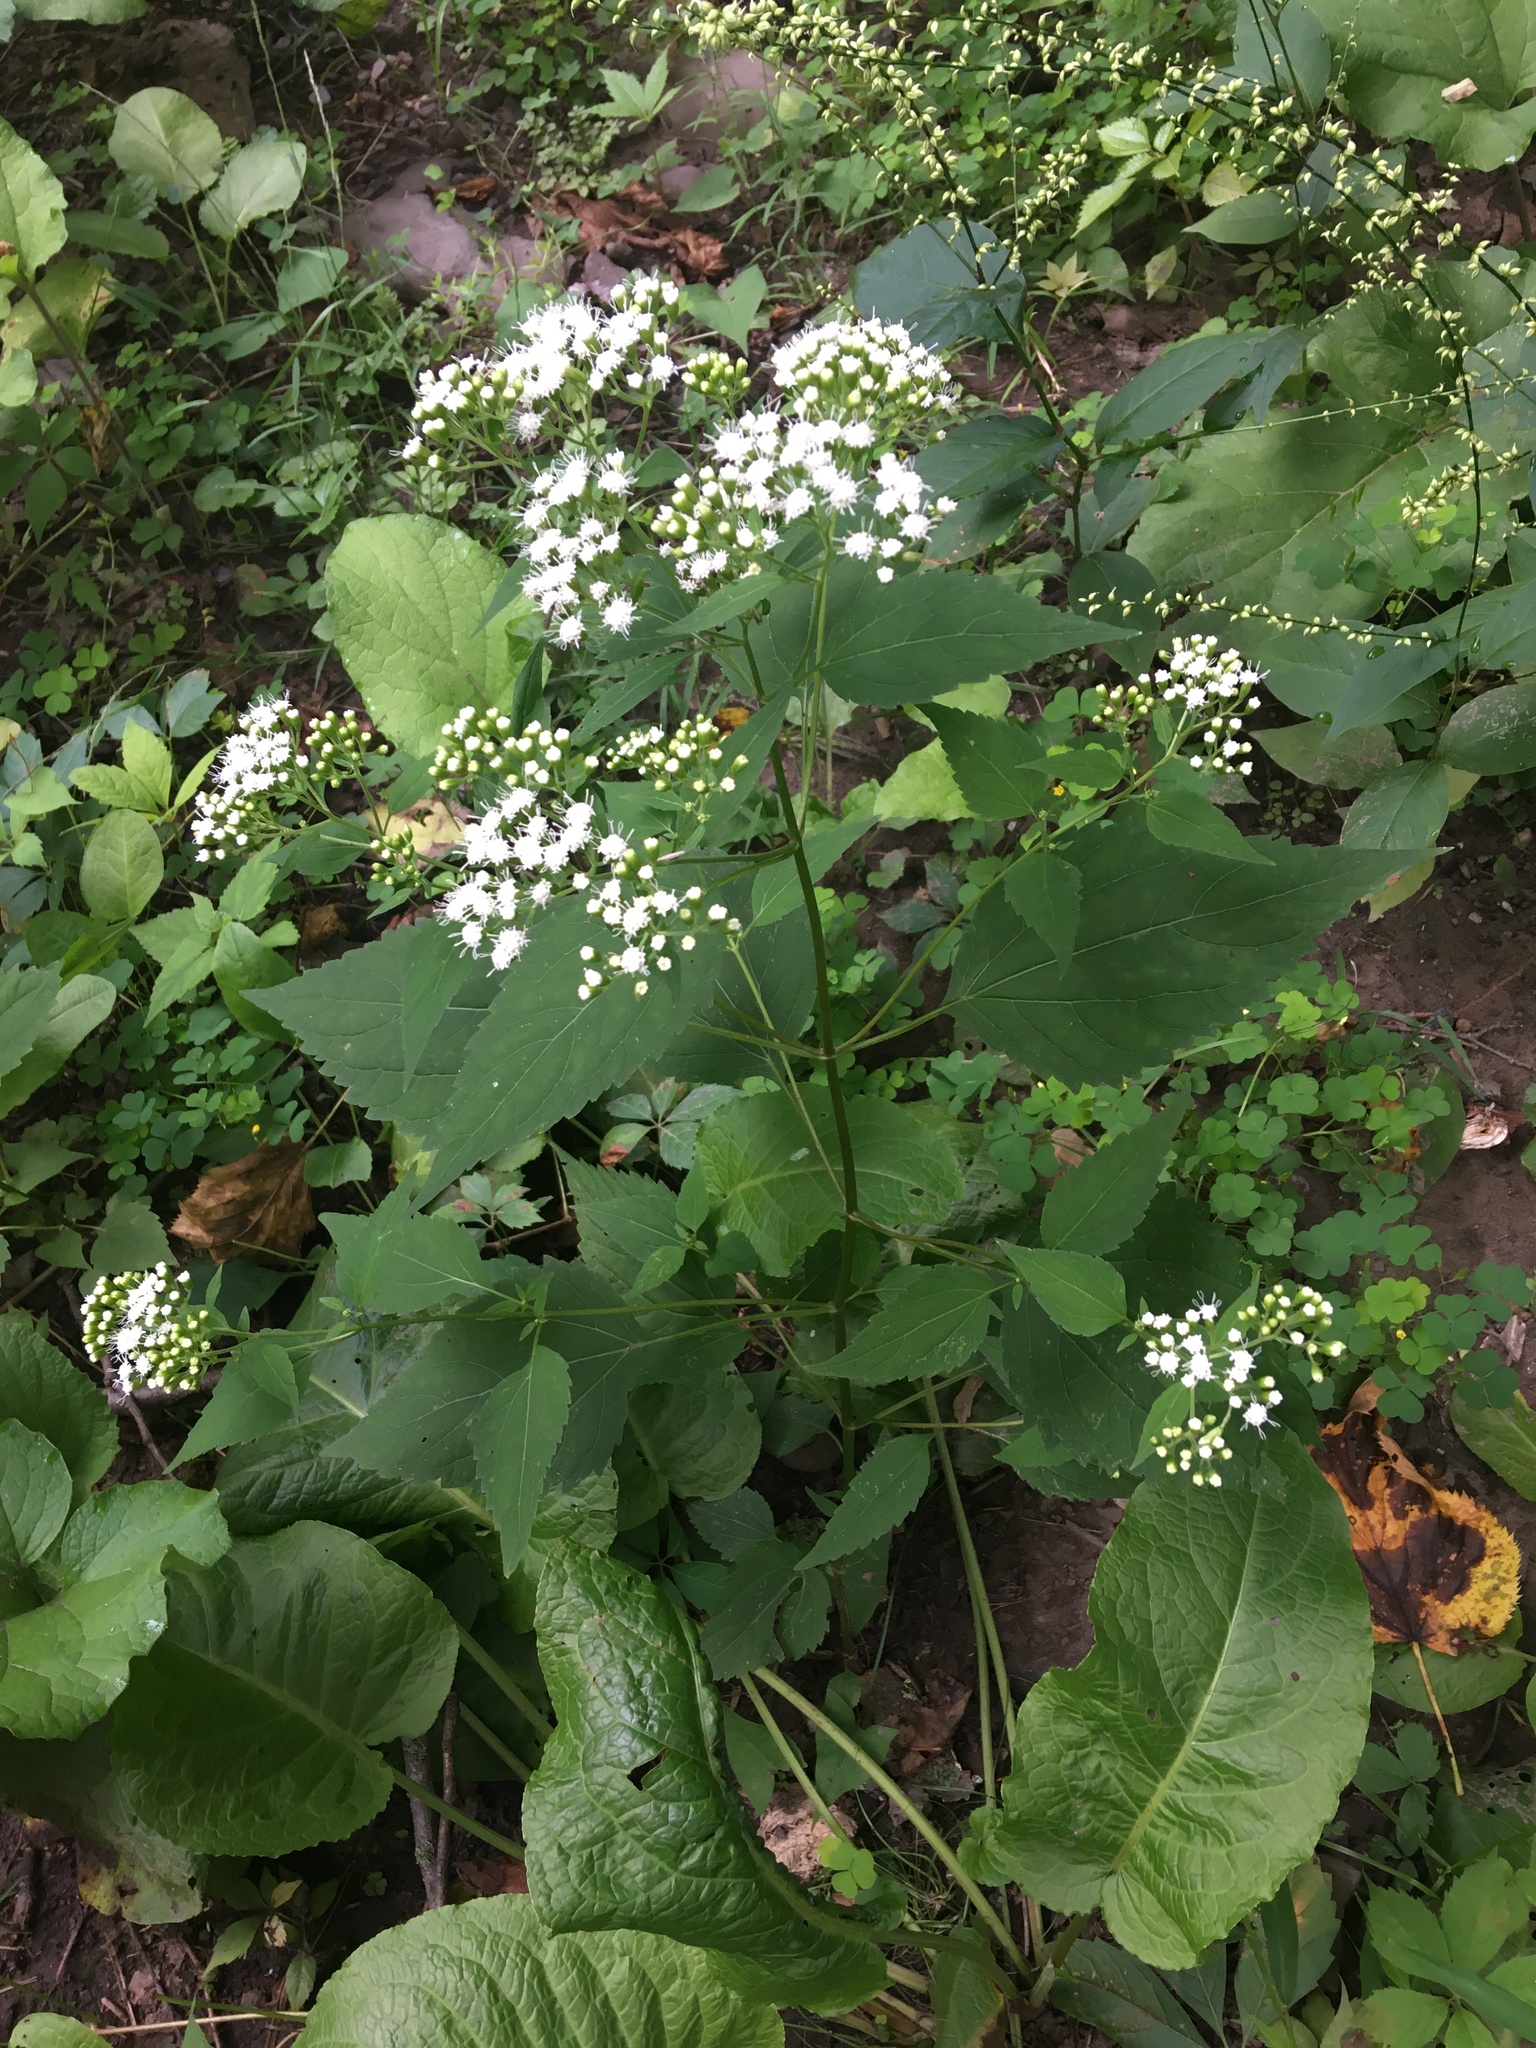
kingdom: Plantae
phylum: Tracheophyta
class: Magnoliopsida
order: Asterales
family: Asteraceae
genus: Ageratina
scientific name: Ageratina altissima
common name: White snakeroot
